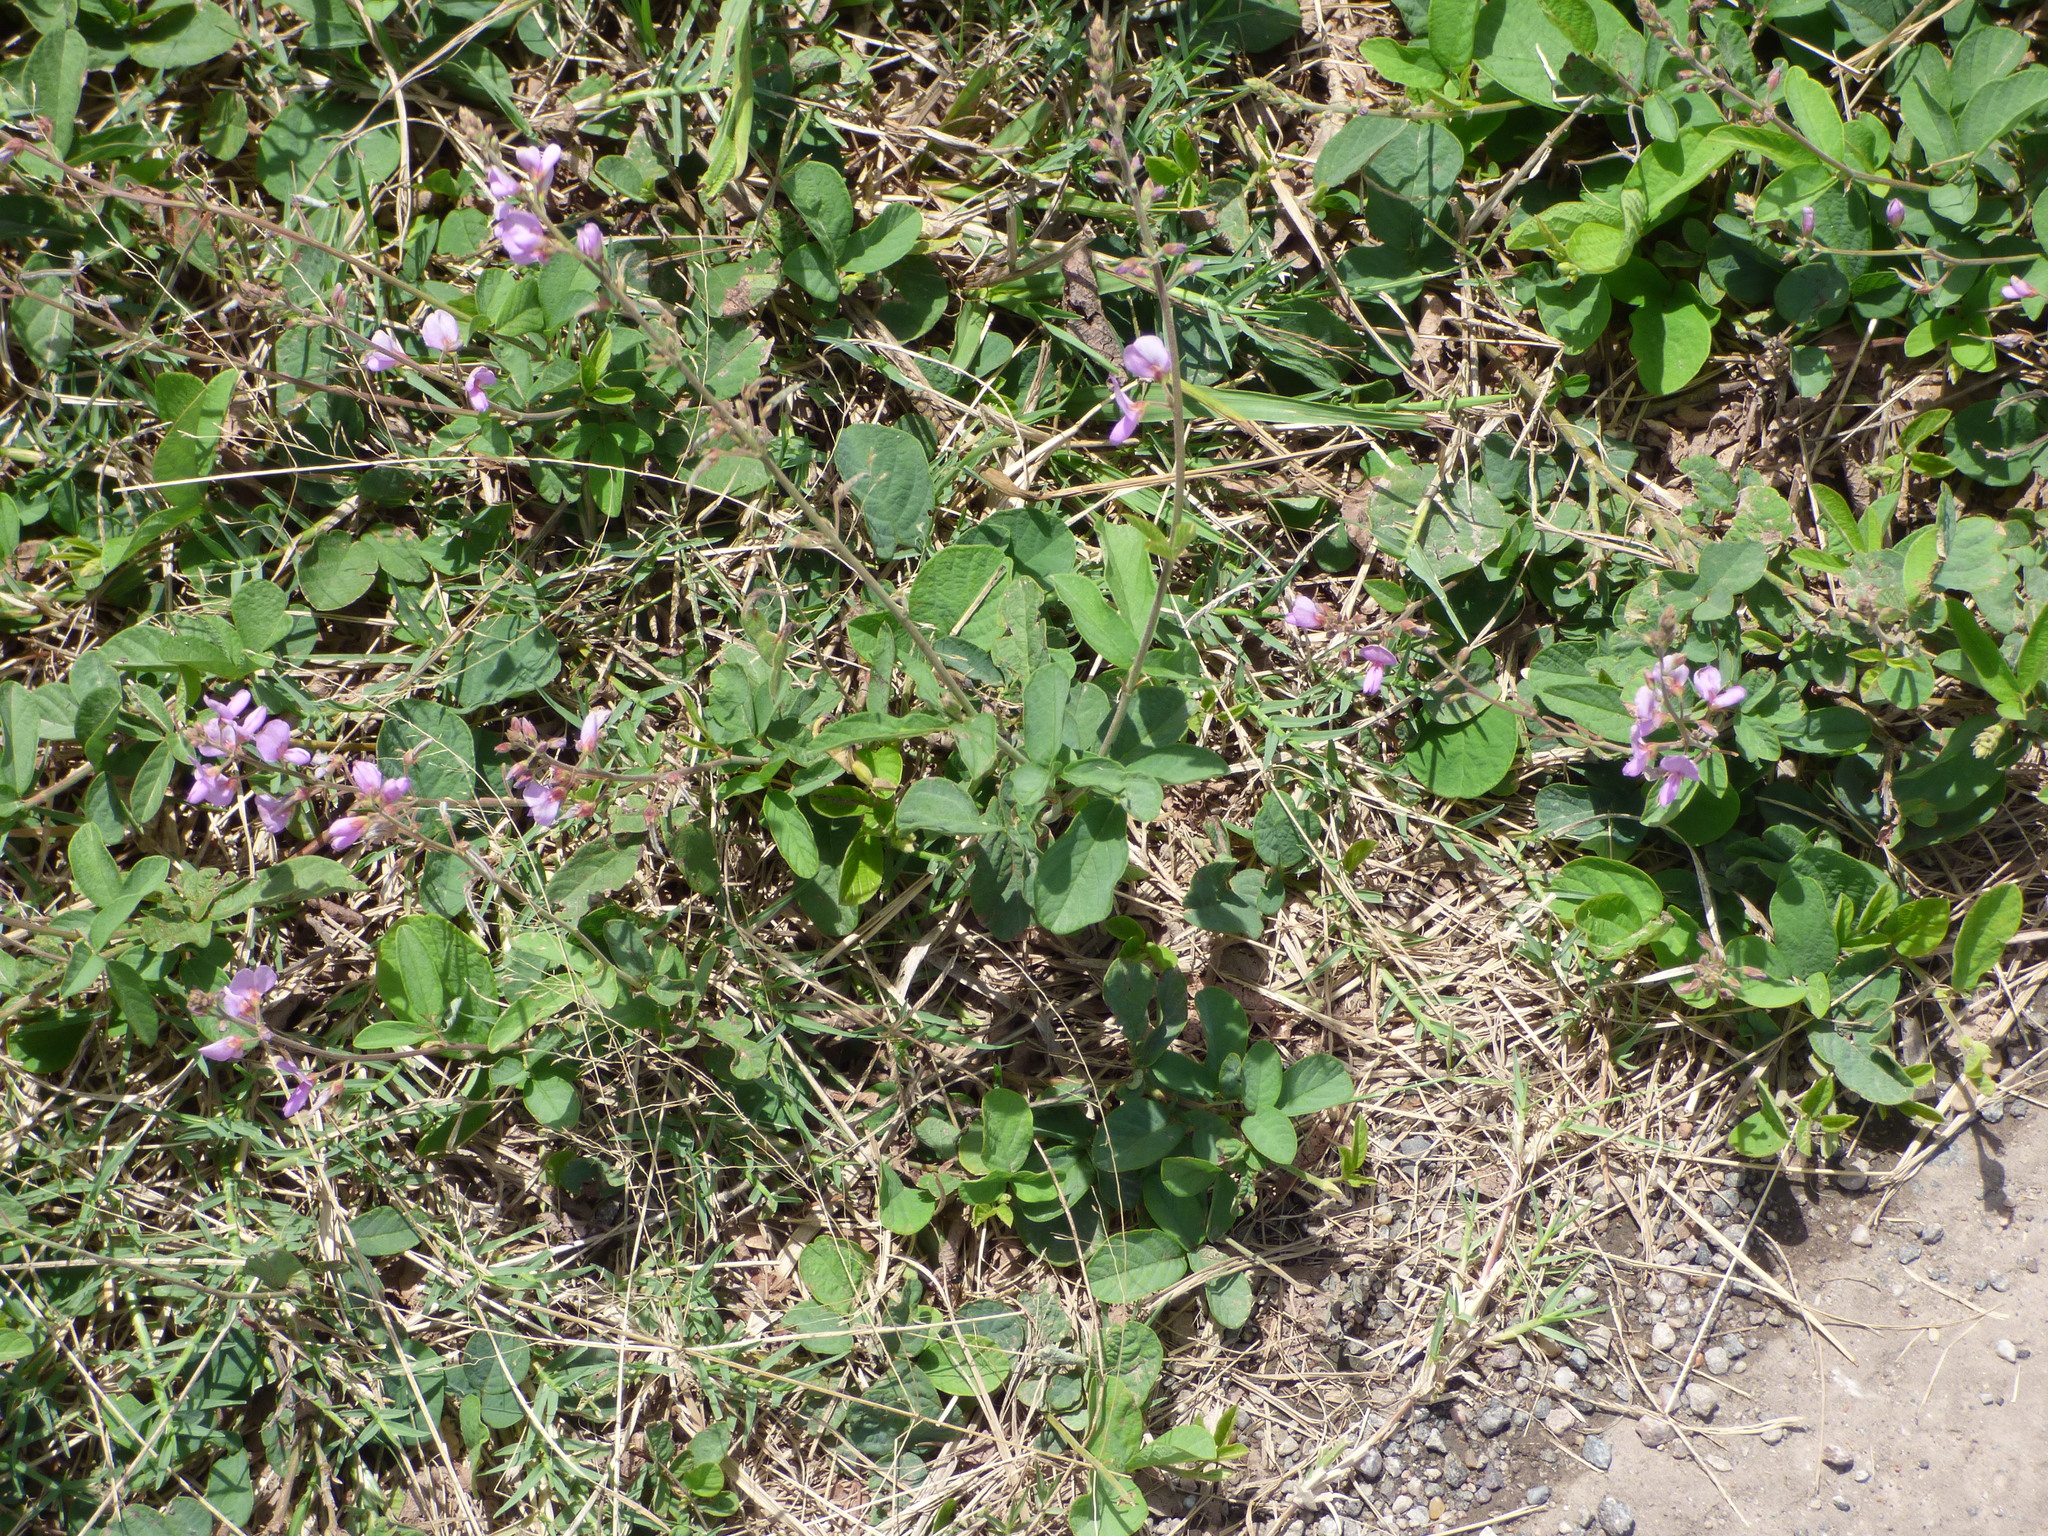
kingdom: Plantae
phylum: Tracheophyta
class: Magnoliopsida
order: Fabales
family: Fabaceae
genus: Desmodium
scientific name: Desmodium incanum
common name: Tickclover
